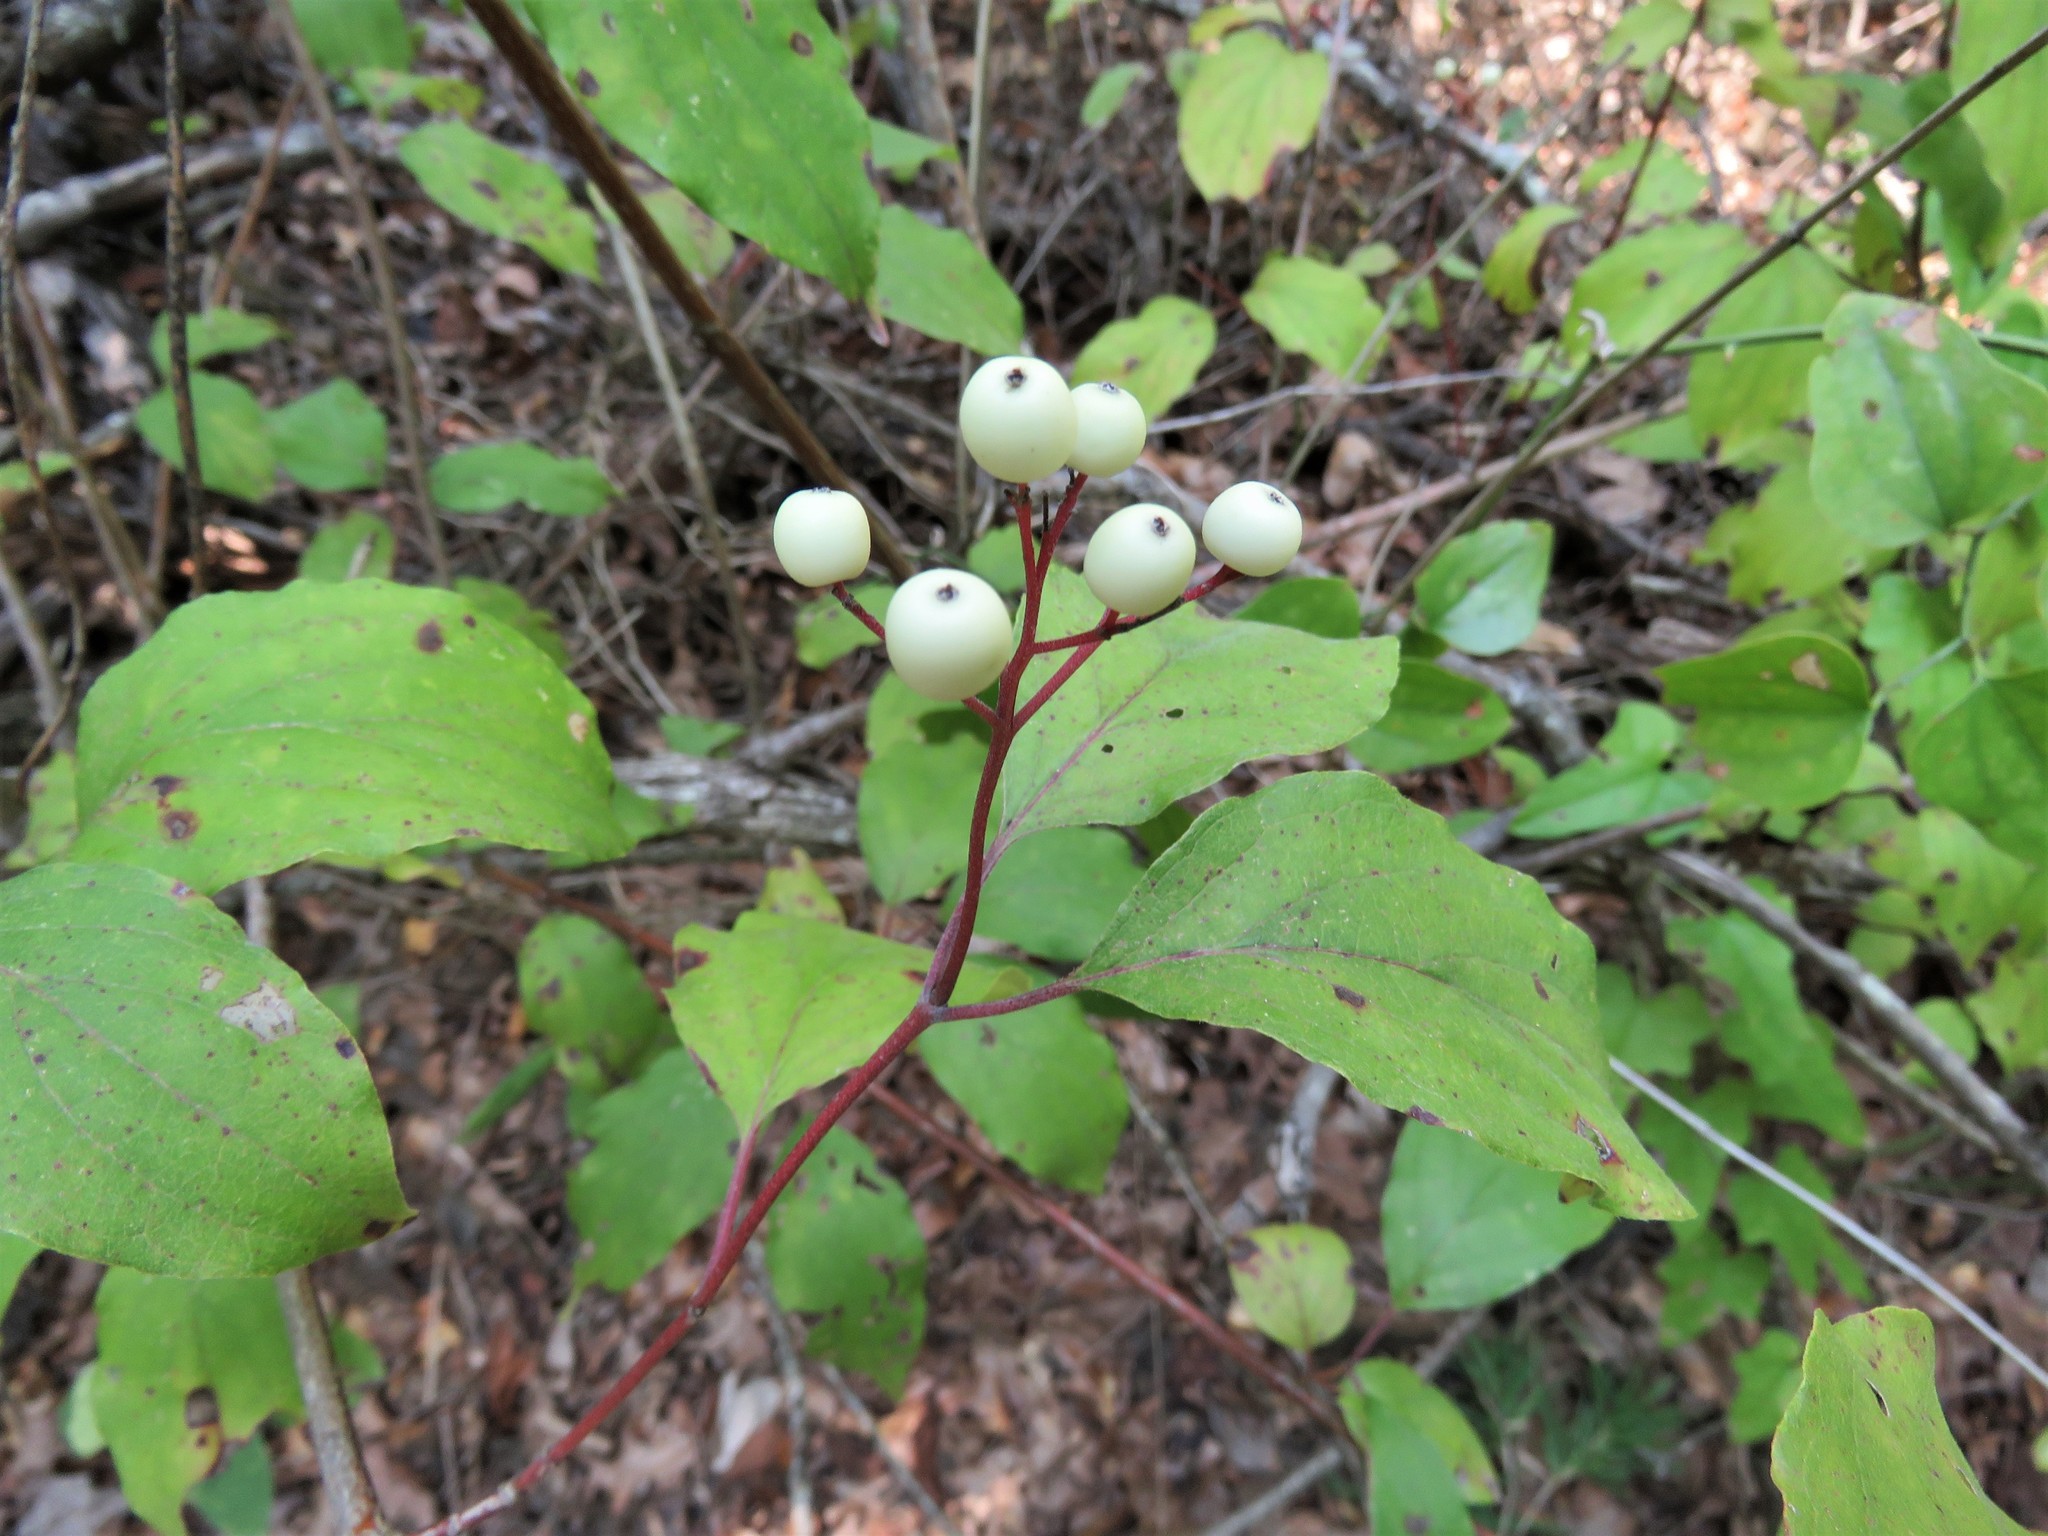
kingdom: Plantae
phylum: Tracheophyta
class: Magnoliopsida
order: Cornales
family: Cornaceae
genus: Cornus
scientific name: Cornus drummondii
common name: Rough-leaf dogwood
